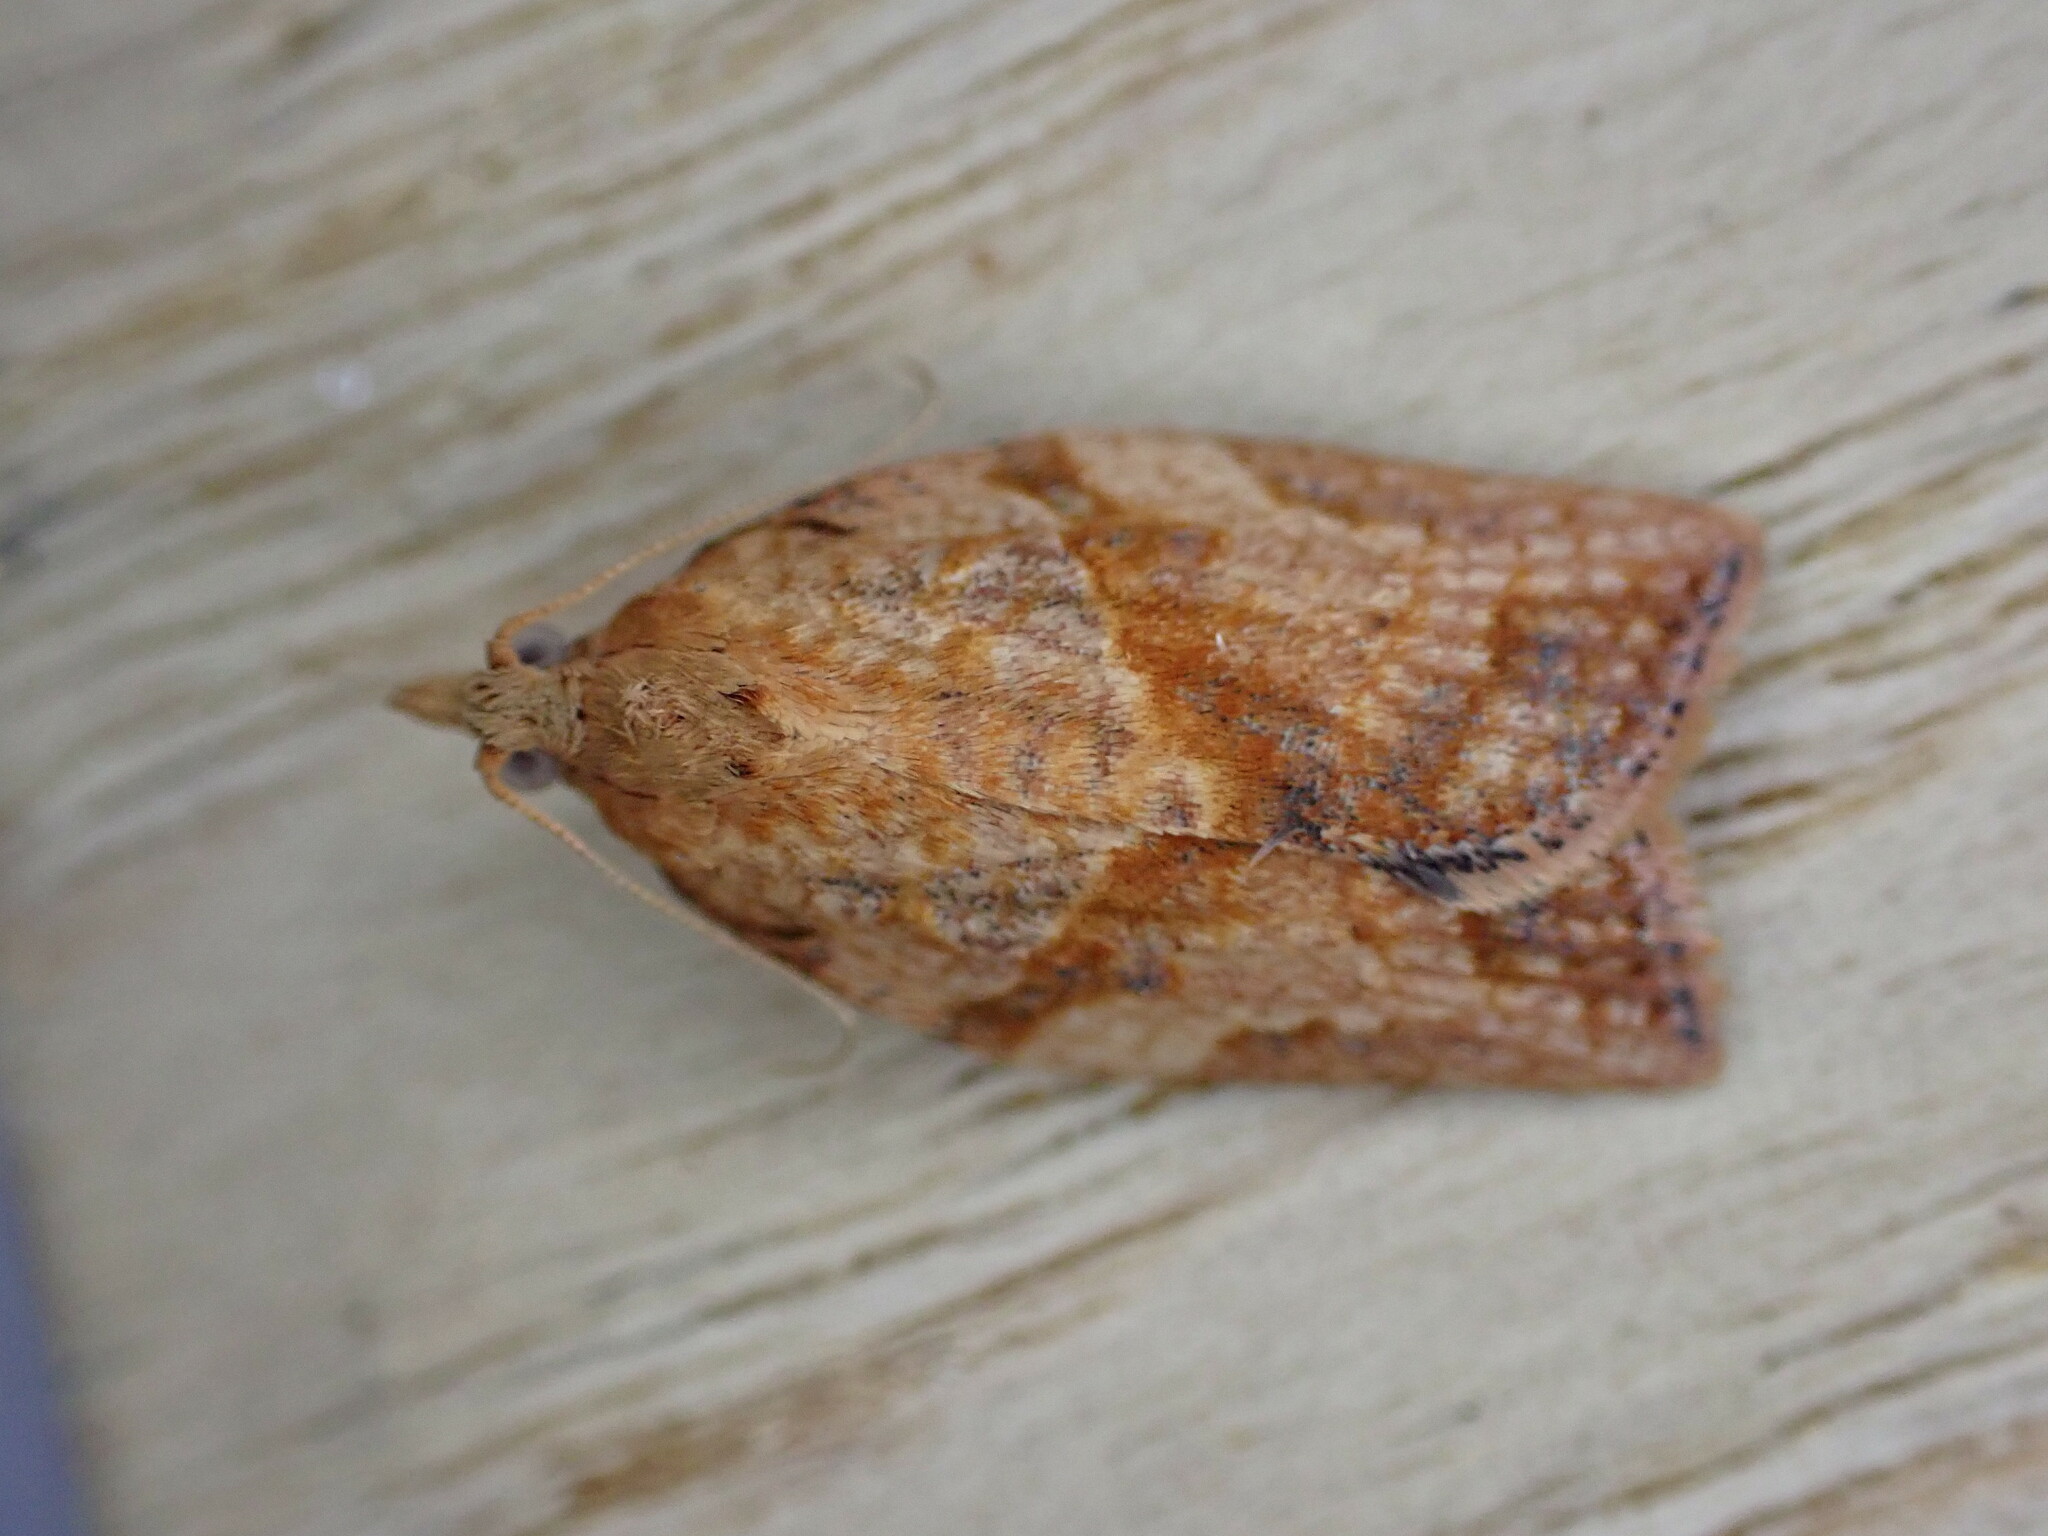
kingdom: Animalia
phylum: Arthropoda
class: Insecta
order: Lepidoptera
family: Tortricidae
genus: Epiphyas
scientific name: Epiphyas postvittana
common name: Light brown apple moth
